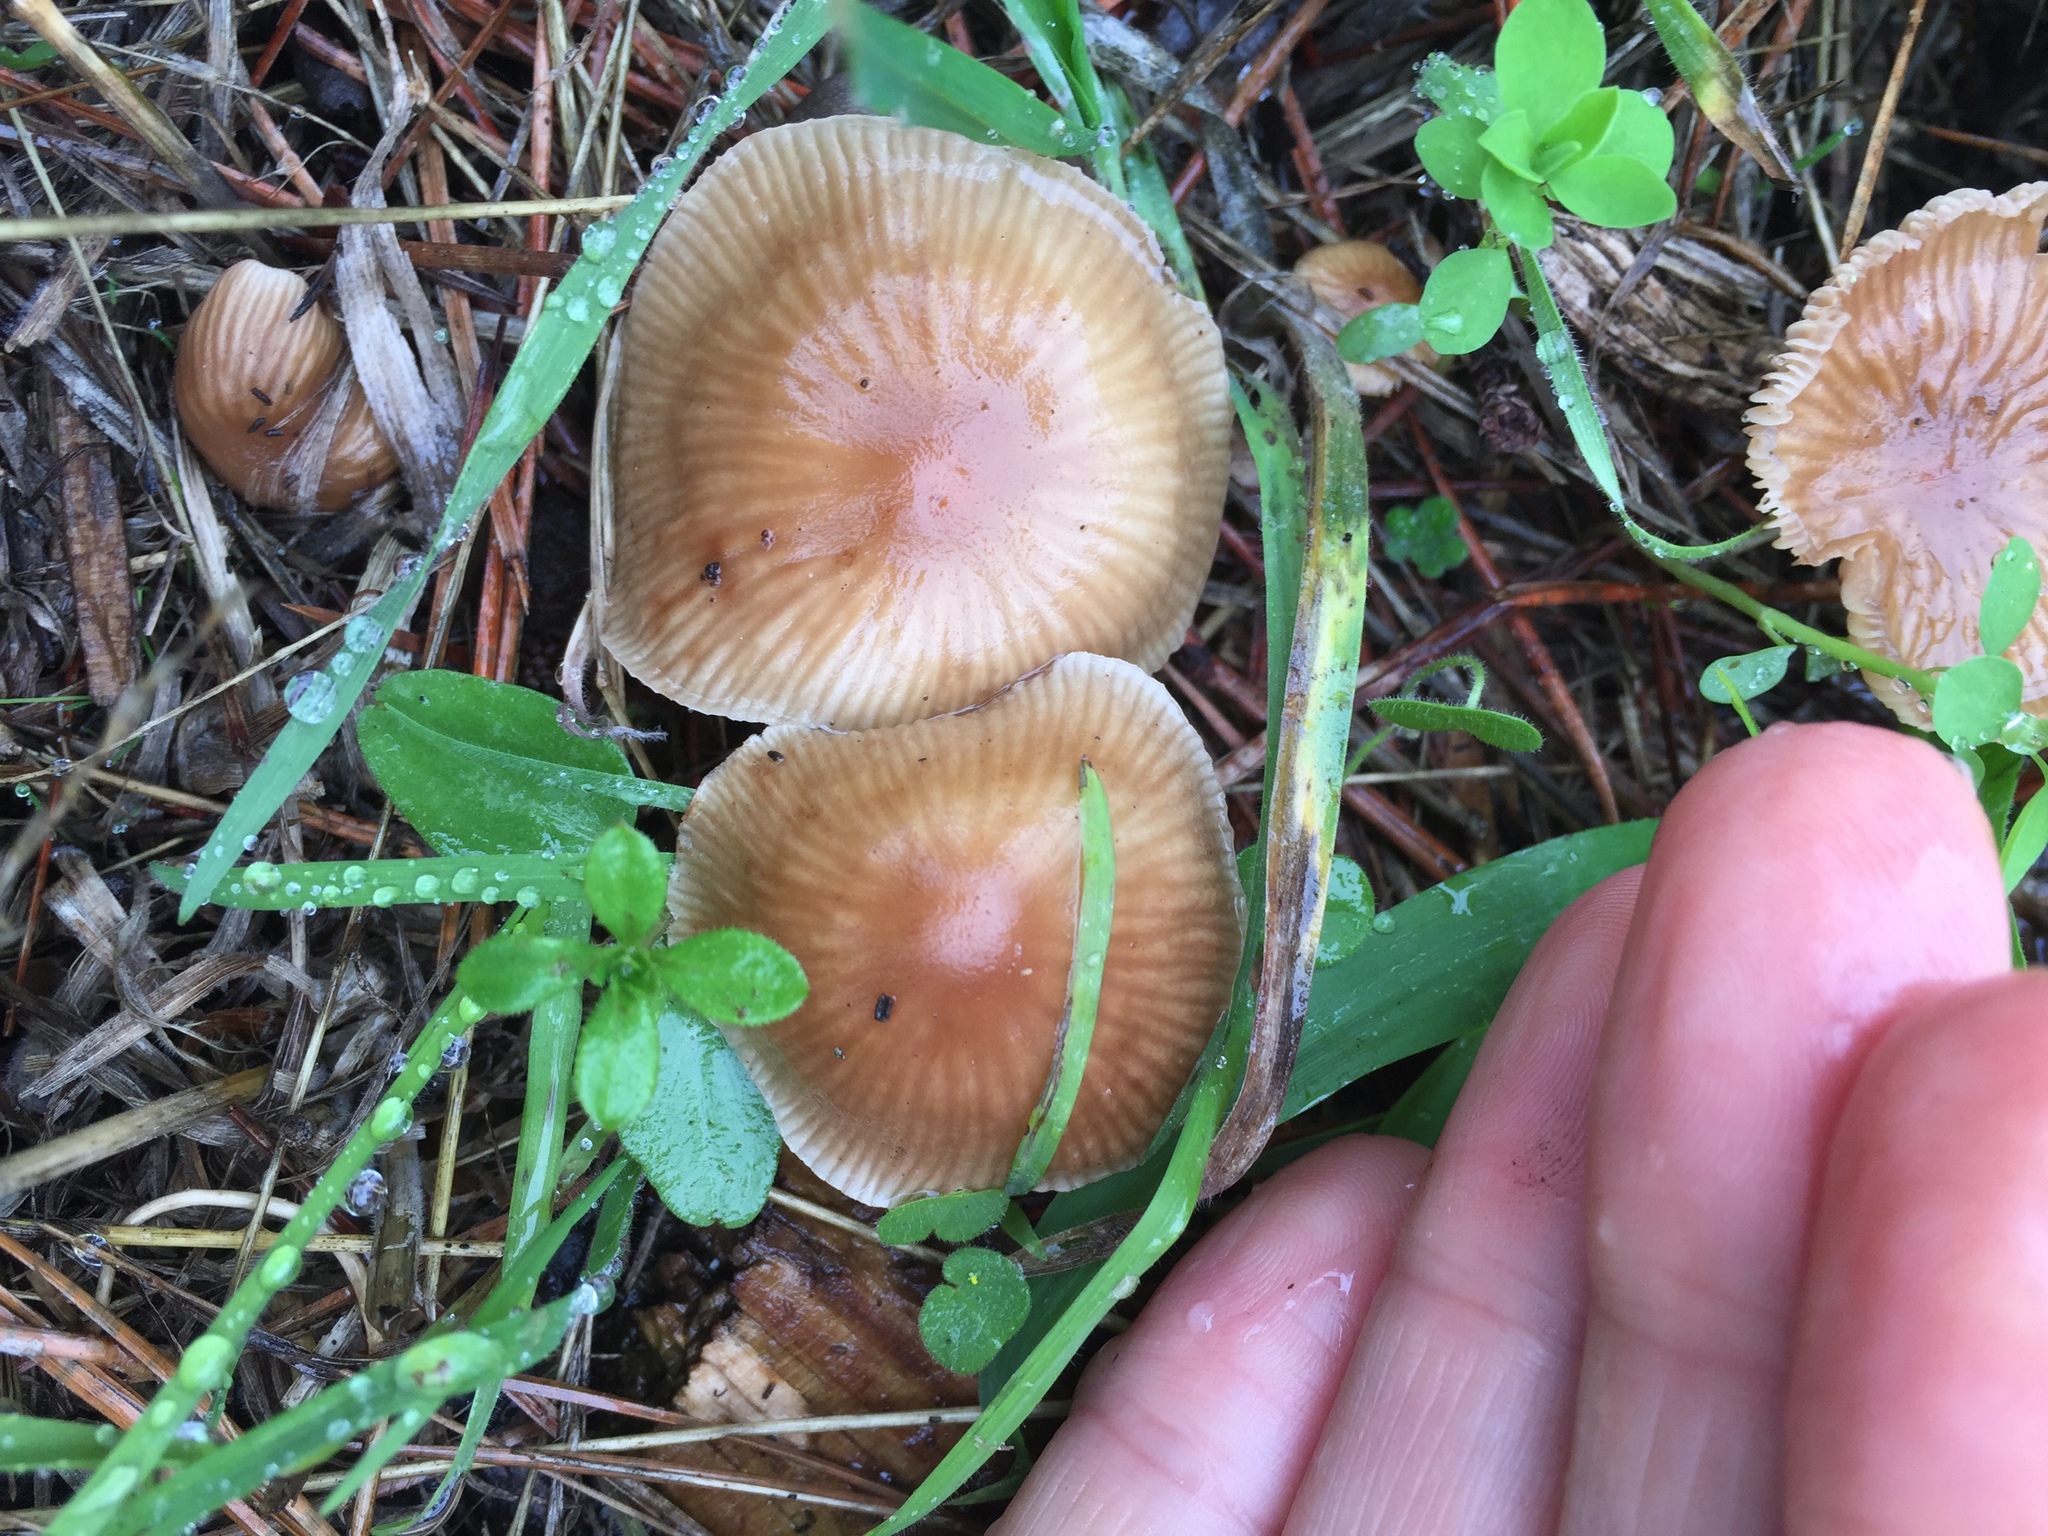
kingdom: Fungi
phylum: Basidiomycota
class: Agaricomycetes
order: Agaricales
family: Omphalotaceae
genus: Collybiopsis
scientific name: Collybiopsis subpruinosa
